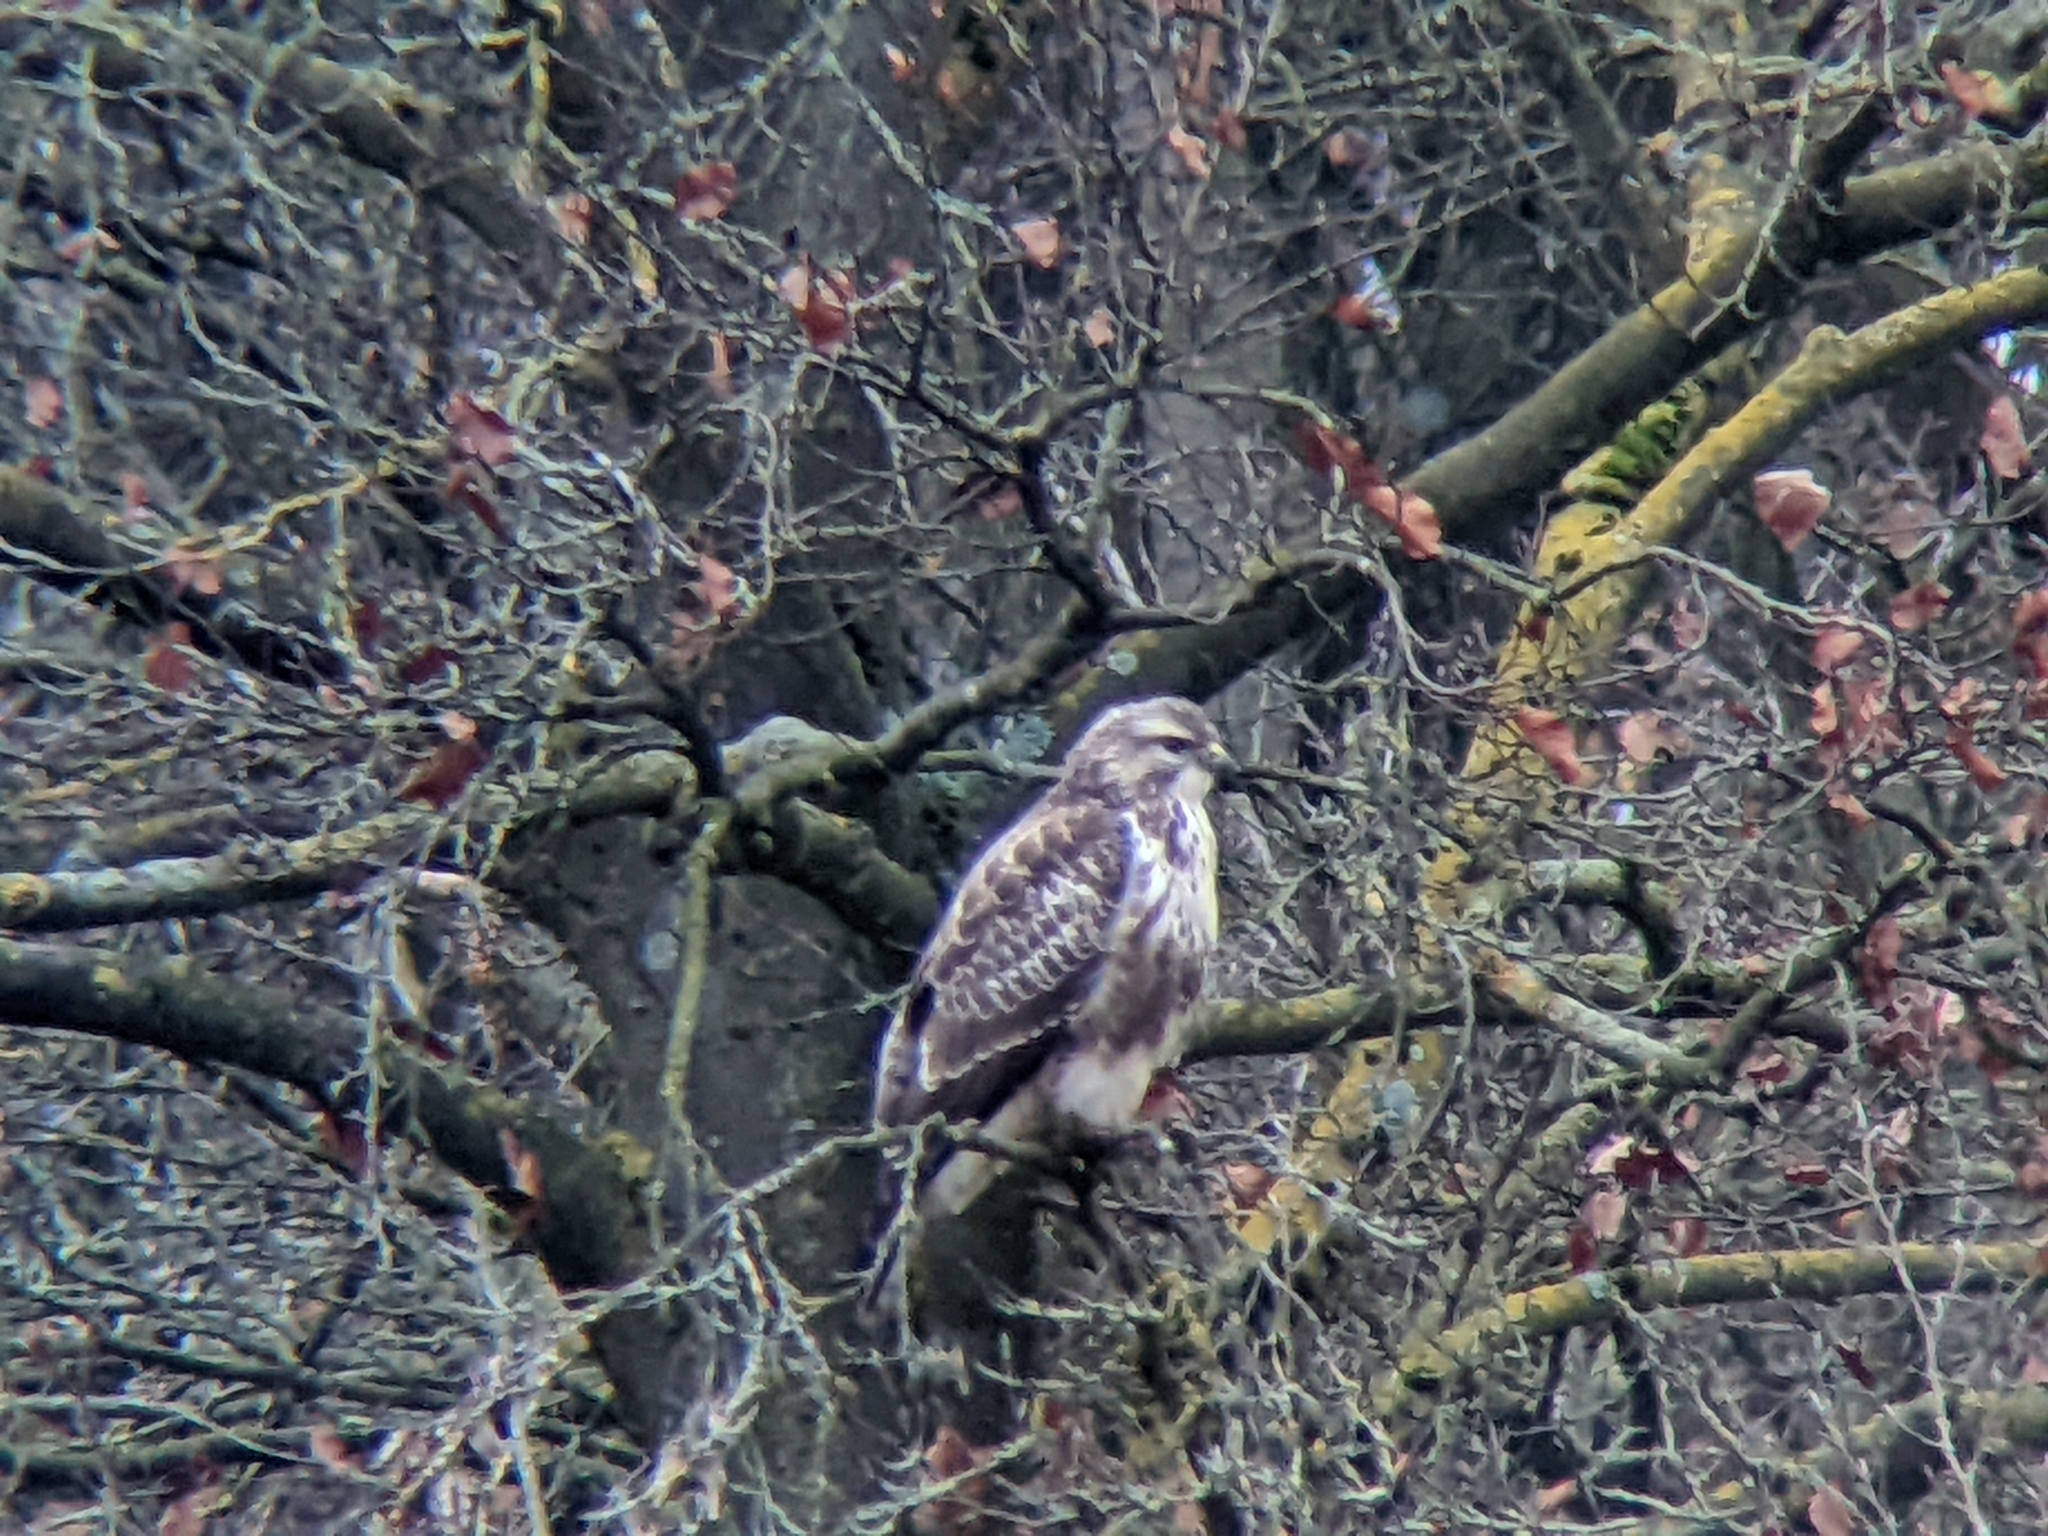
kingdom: Animalia
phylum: Chordata
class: Aves
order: Accipitriformes
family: Accipitridae
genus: Buteo
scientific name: Buteo buteo
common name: Common buzzard
